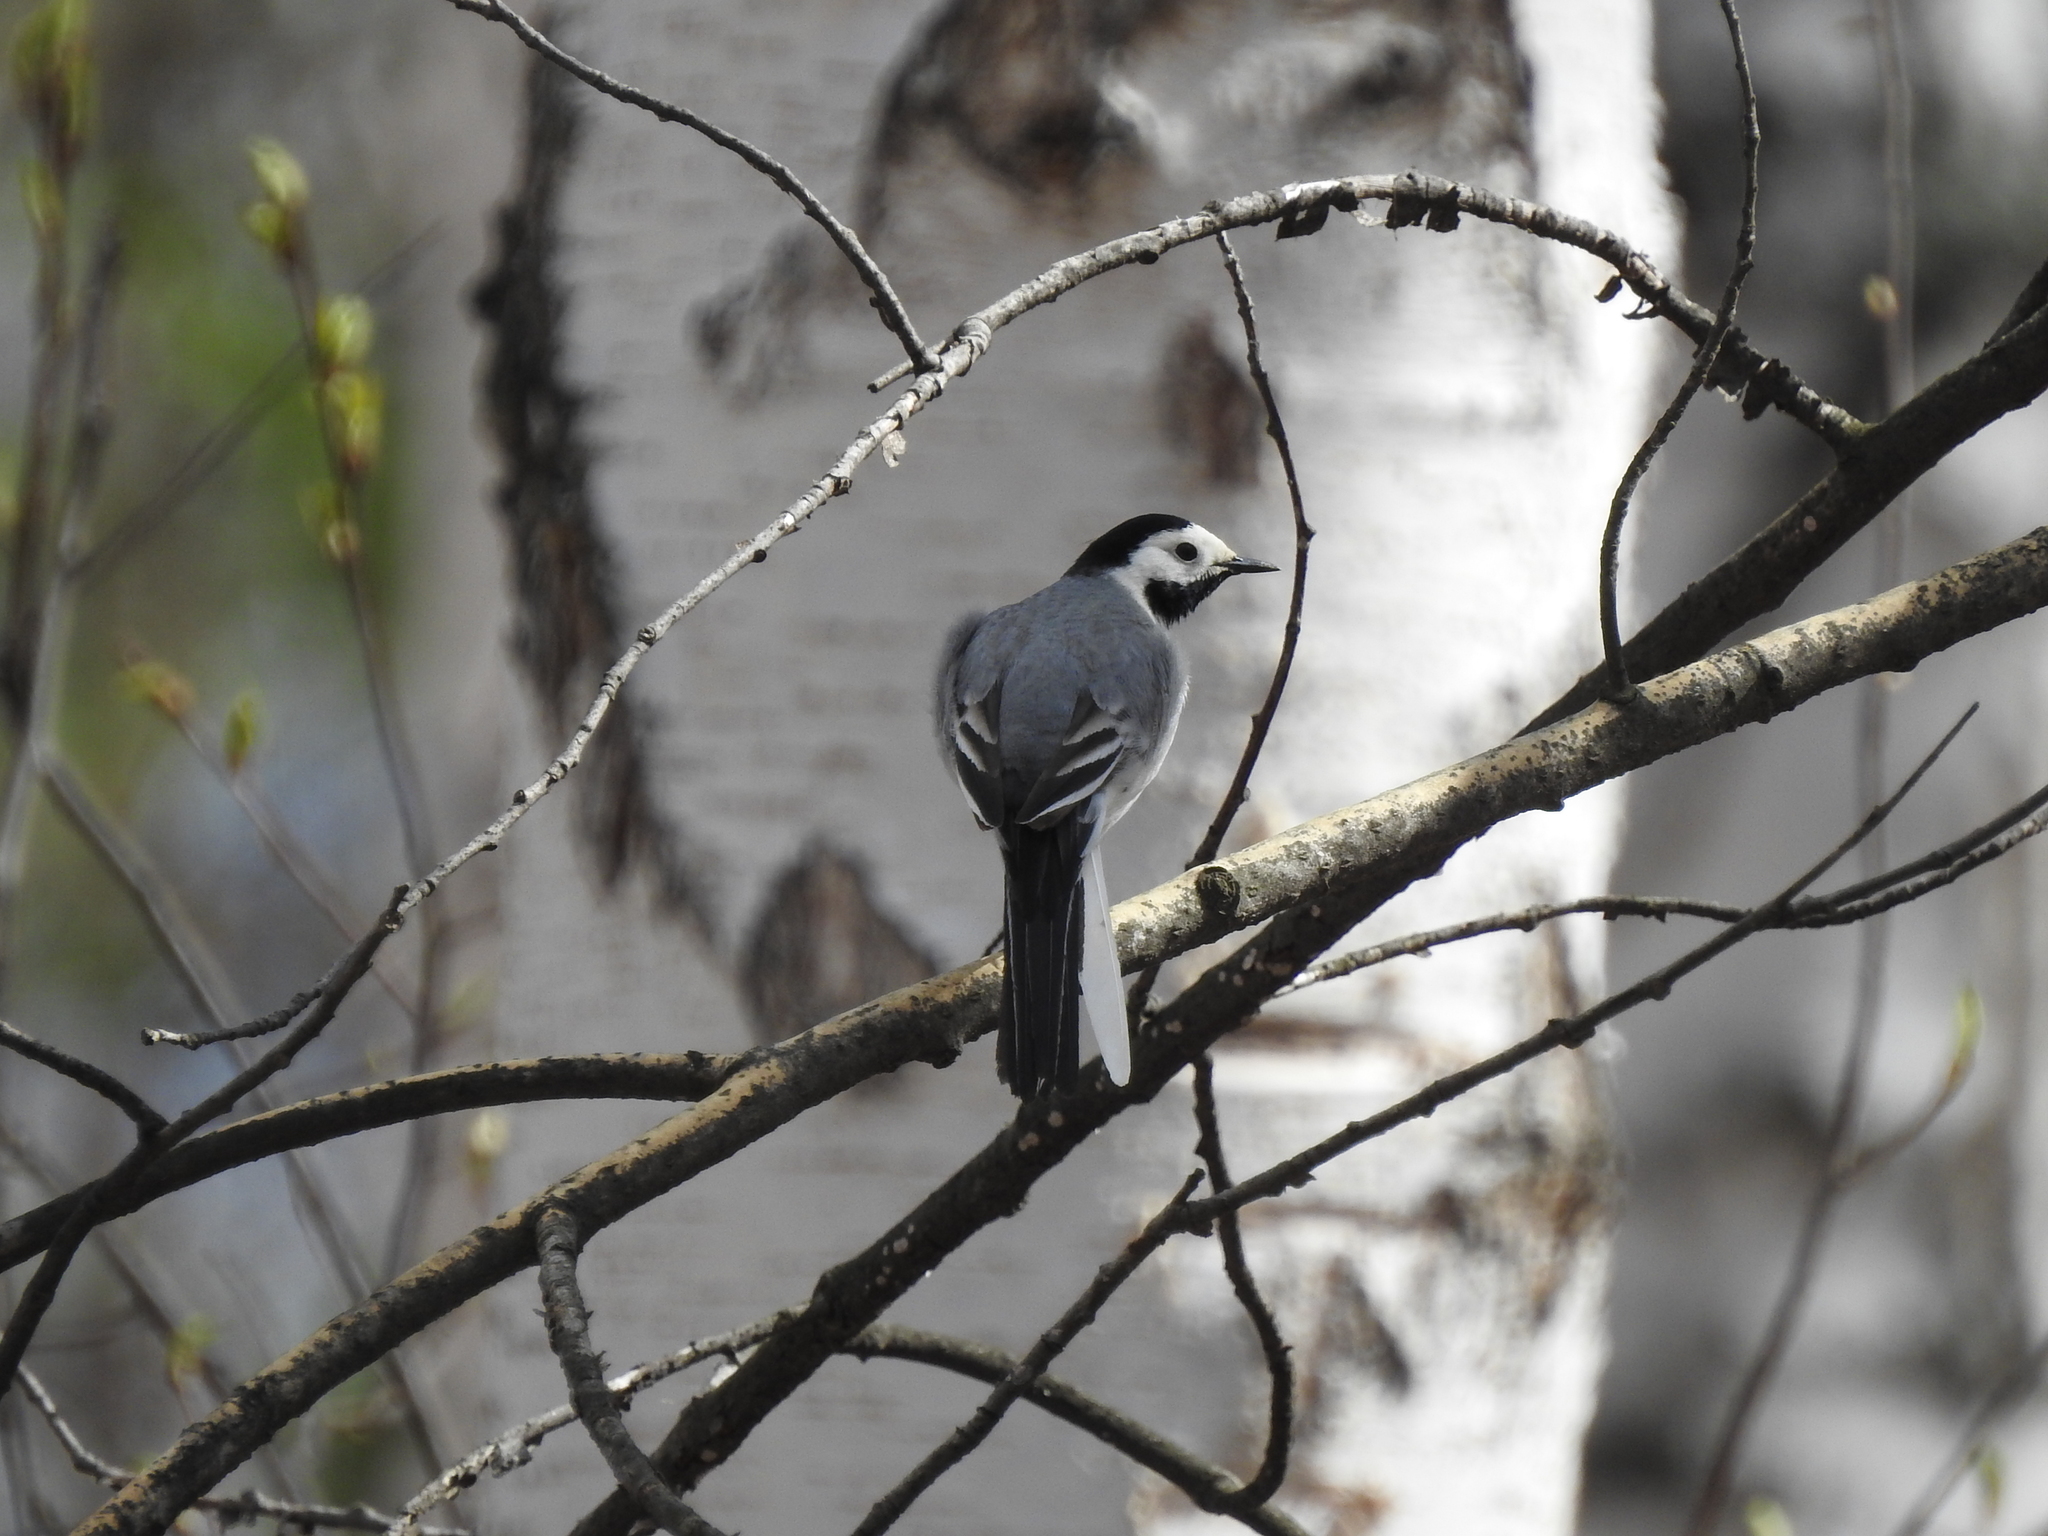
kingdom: Animalia
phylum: Chordata
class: Aves
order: Passeriformes
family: Motacillidae
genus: Motacilla
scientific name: Motacilla alba
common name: White wagtail
